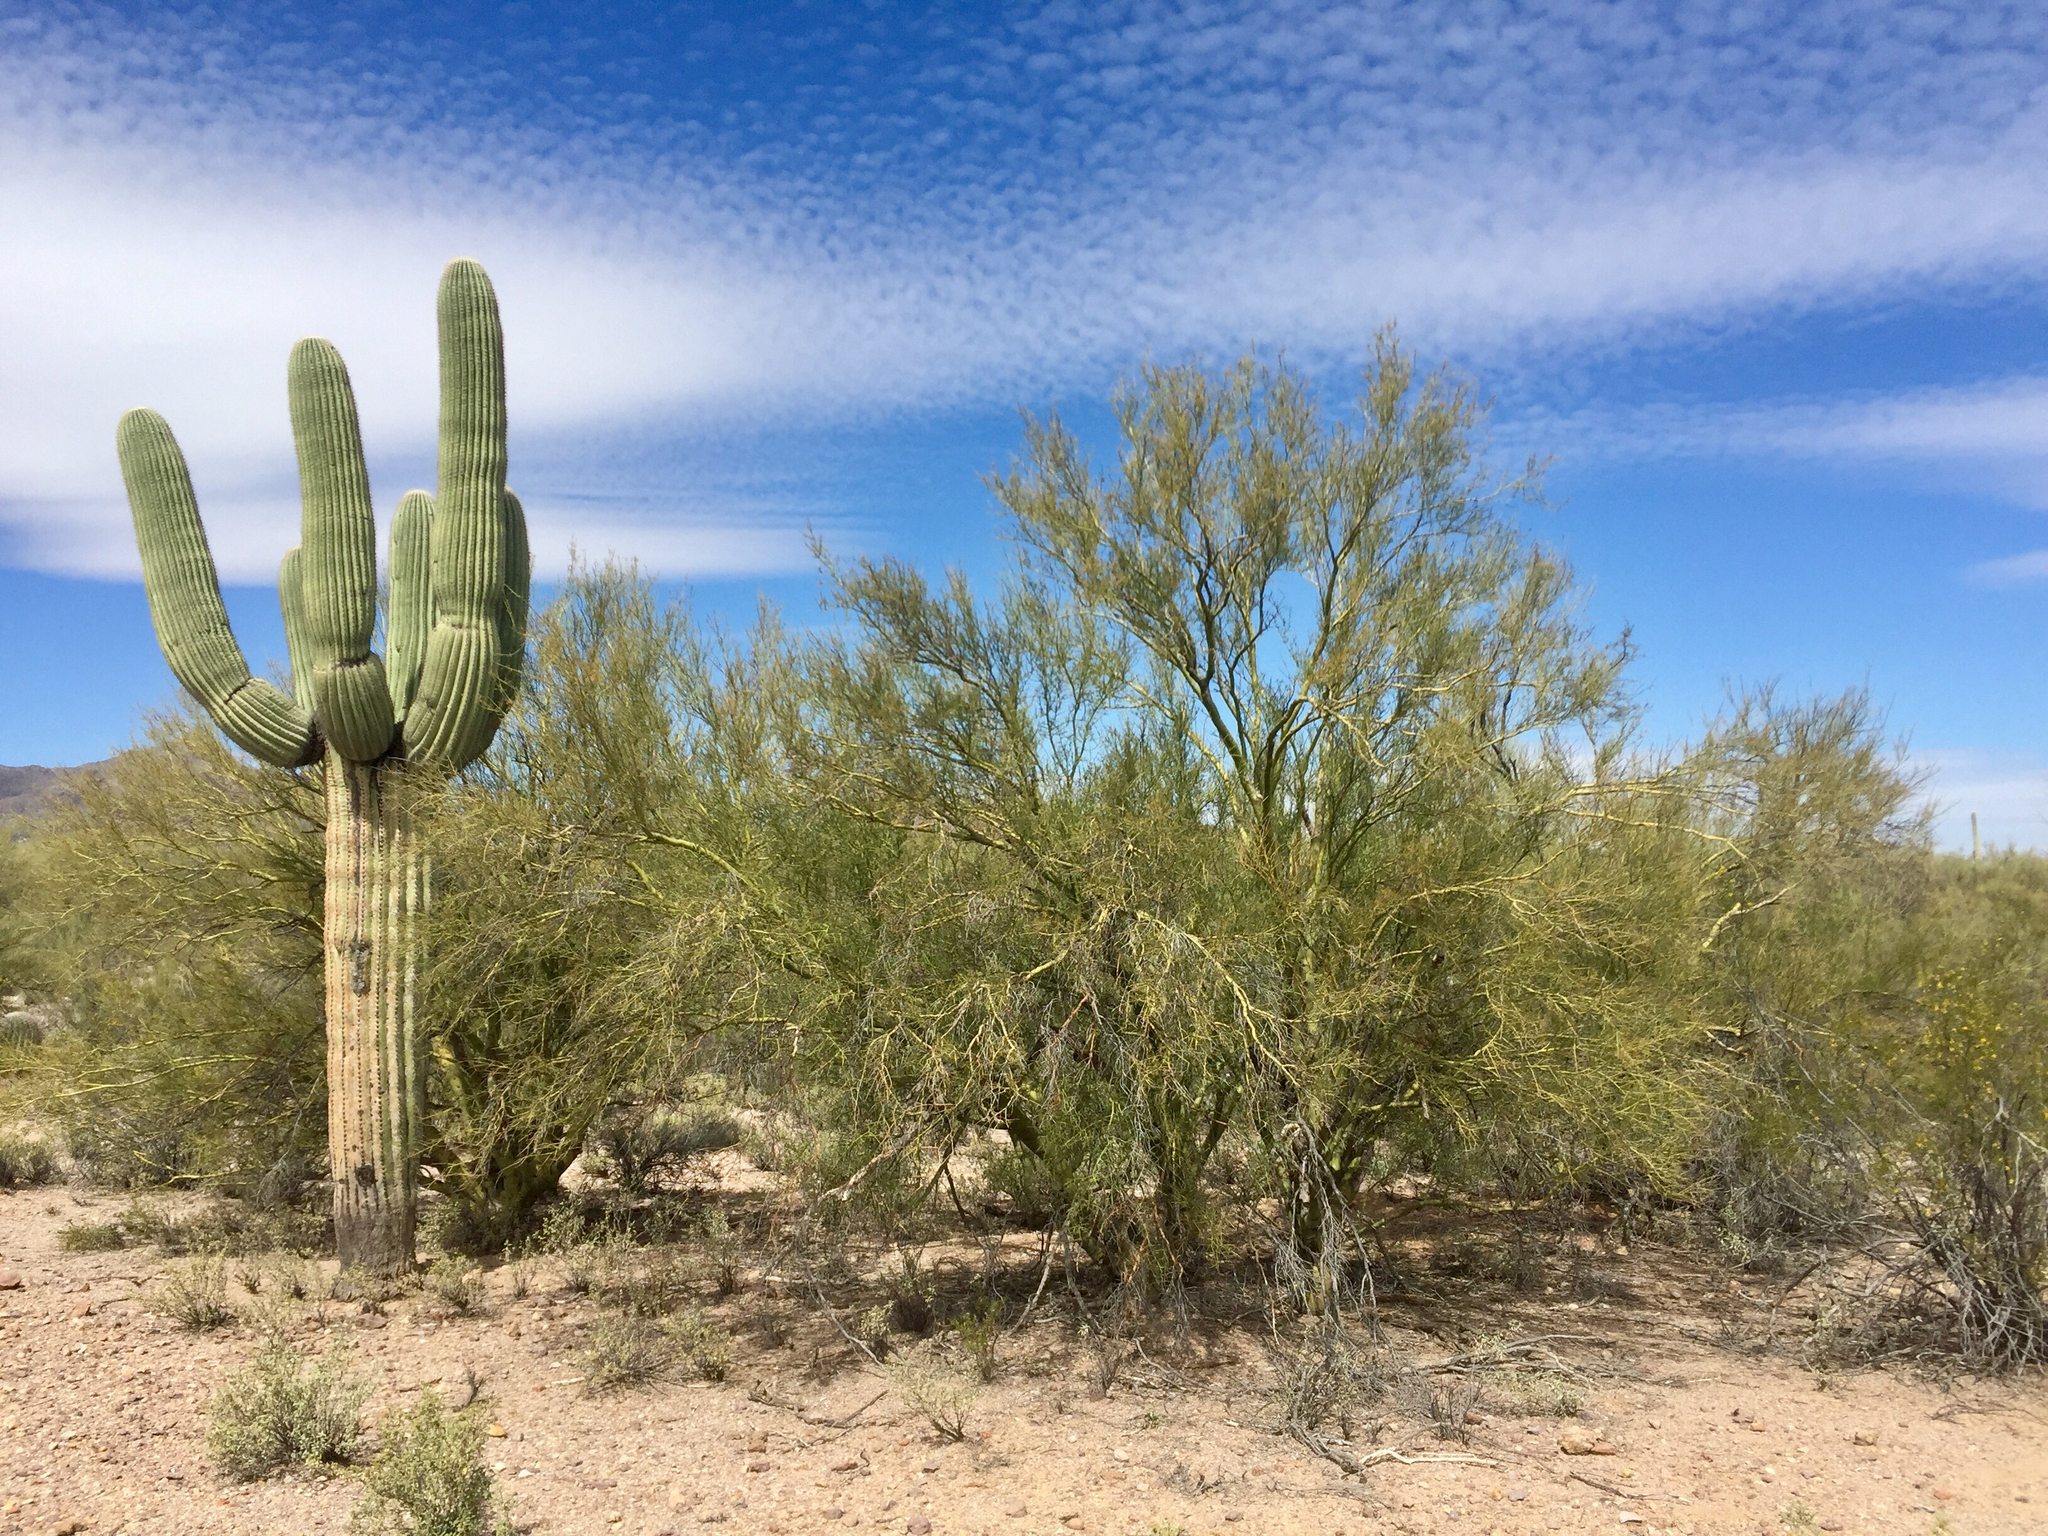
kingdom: Plantae
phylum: Tracheophyta
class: Magnoliopsida
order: Fabales
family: Fabaceae
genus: Parkinsonia
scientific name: Parkinsonia microphylla
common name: Yellow paloverde
